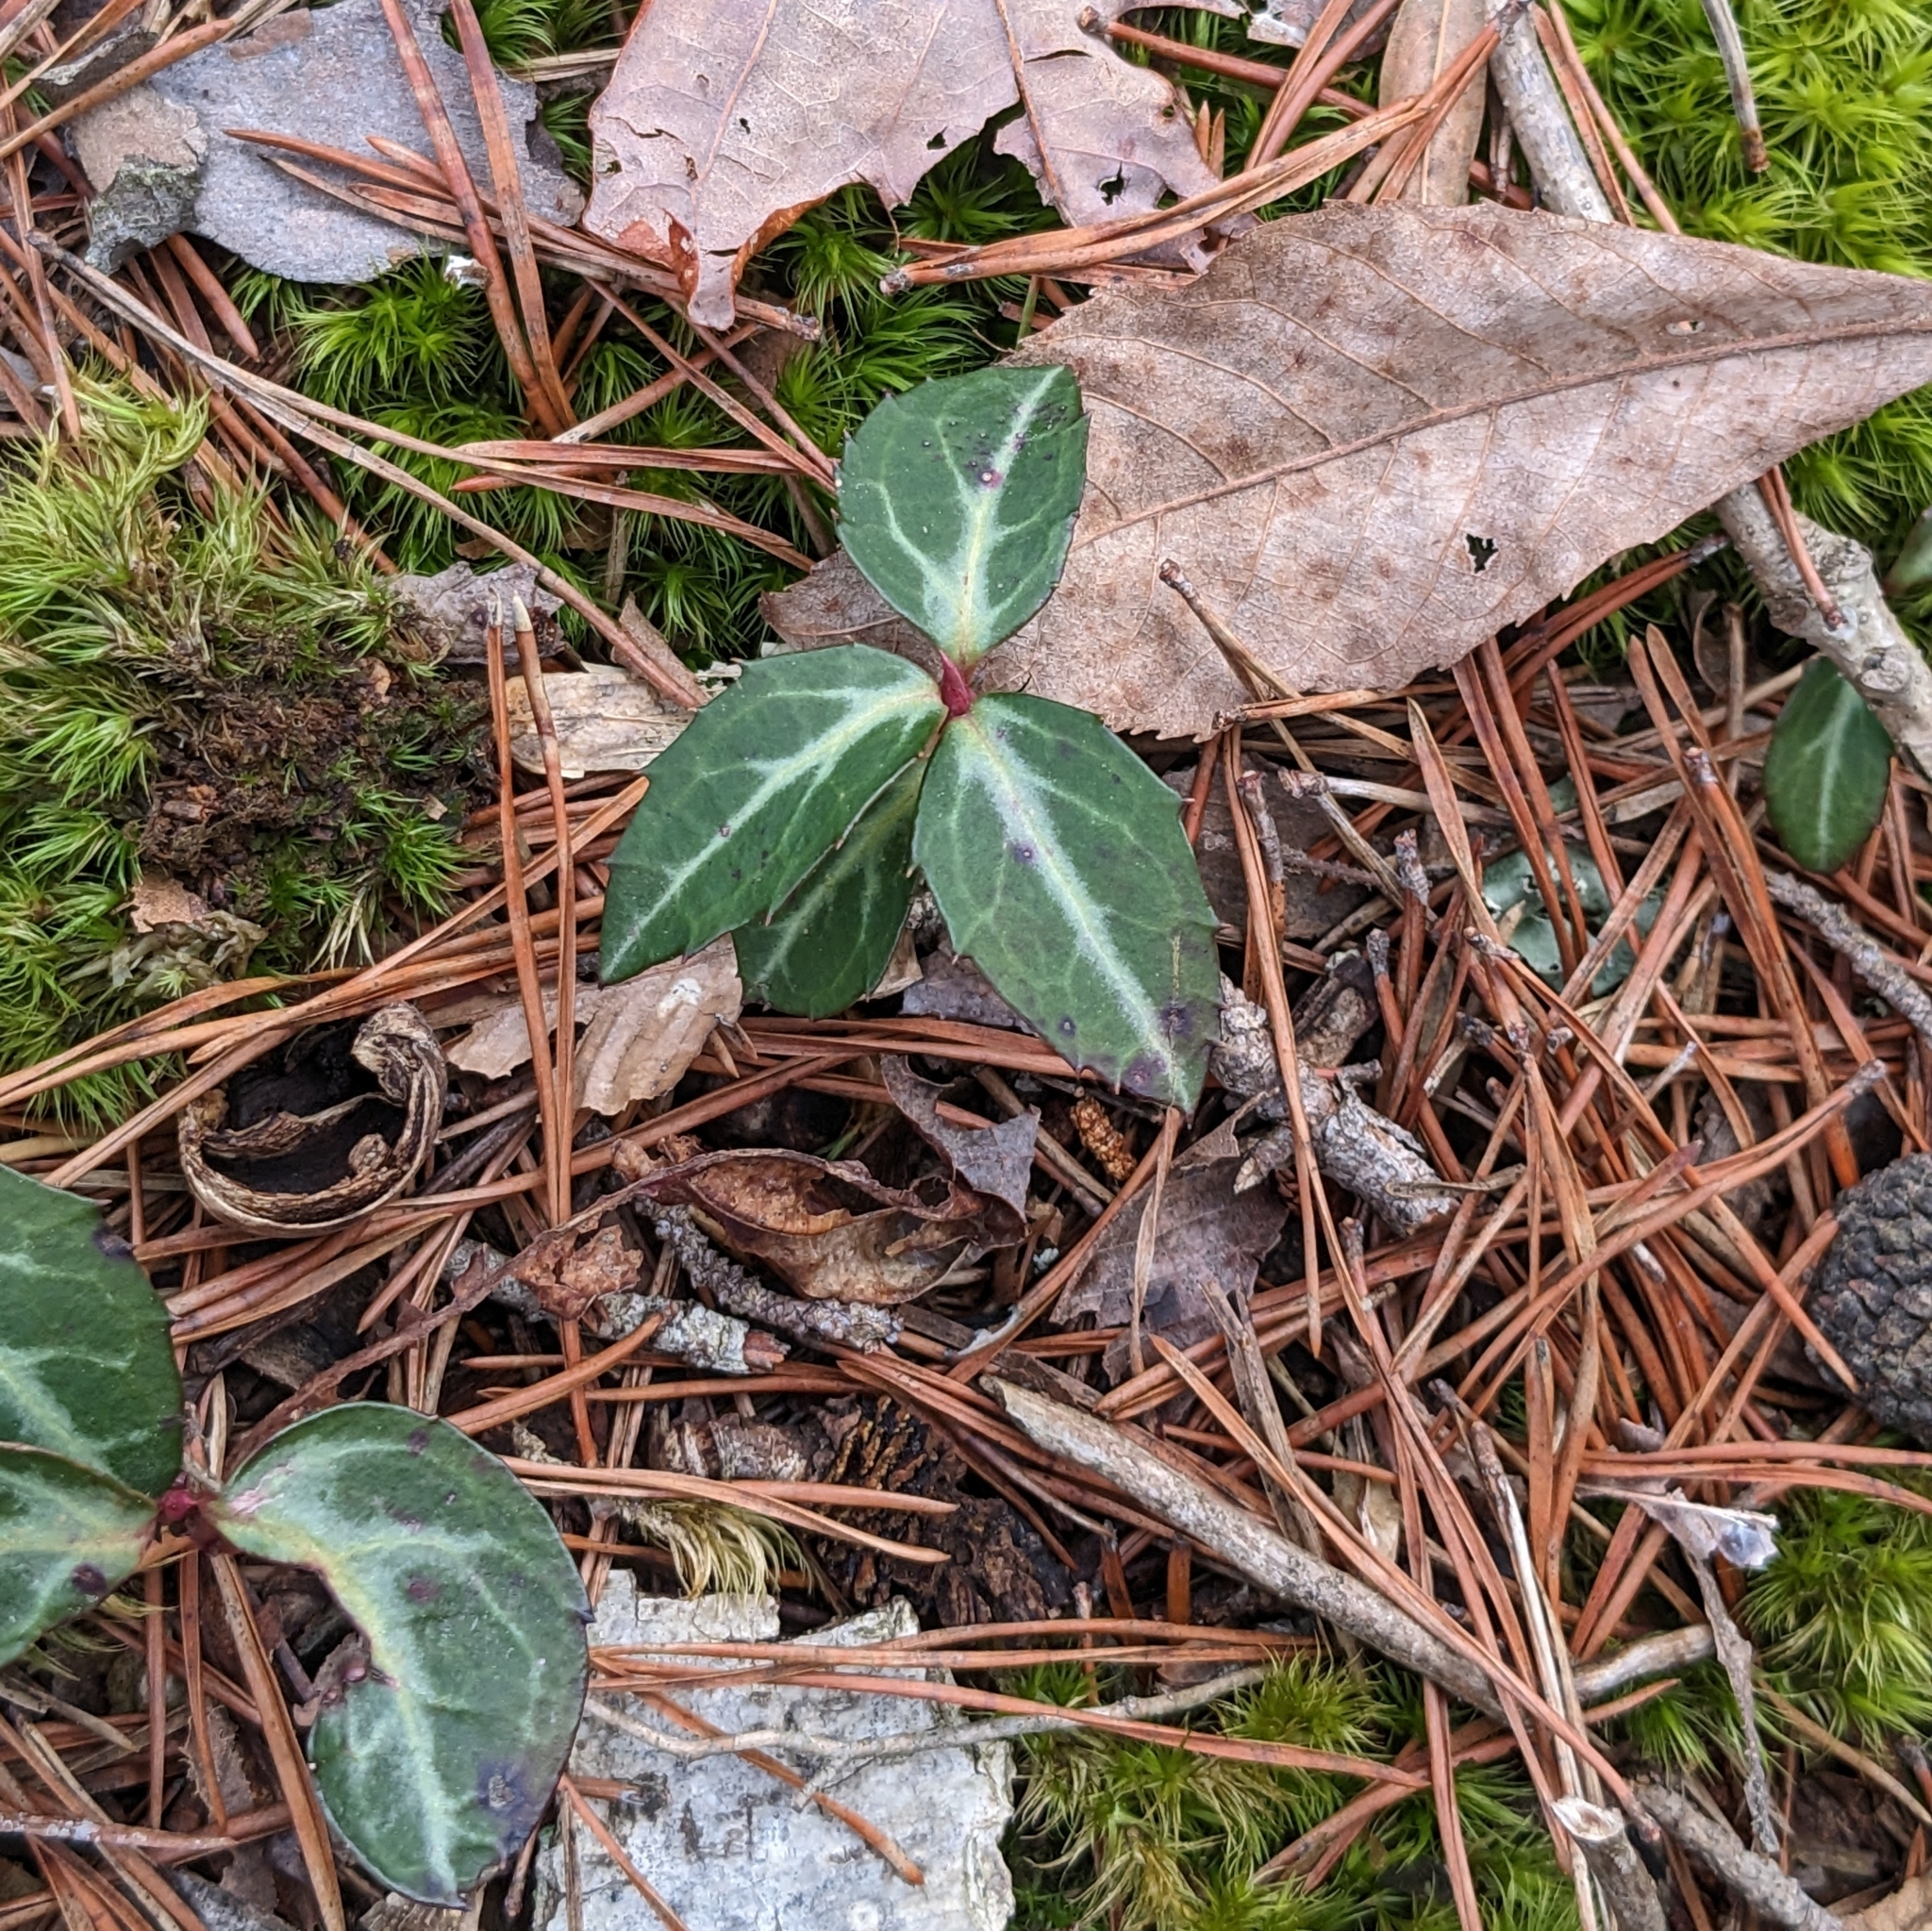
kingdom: Plantae
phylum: Tracheophyta
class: Magnoliopsida
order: Ericales
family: Ericaceae
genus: Chimaphila
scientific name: Chimaphila maculata
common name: Spotted pipsissewa
